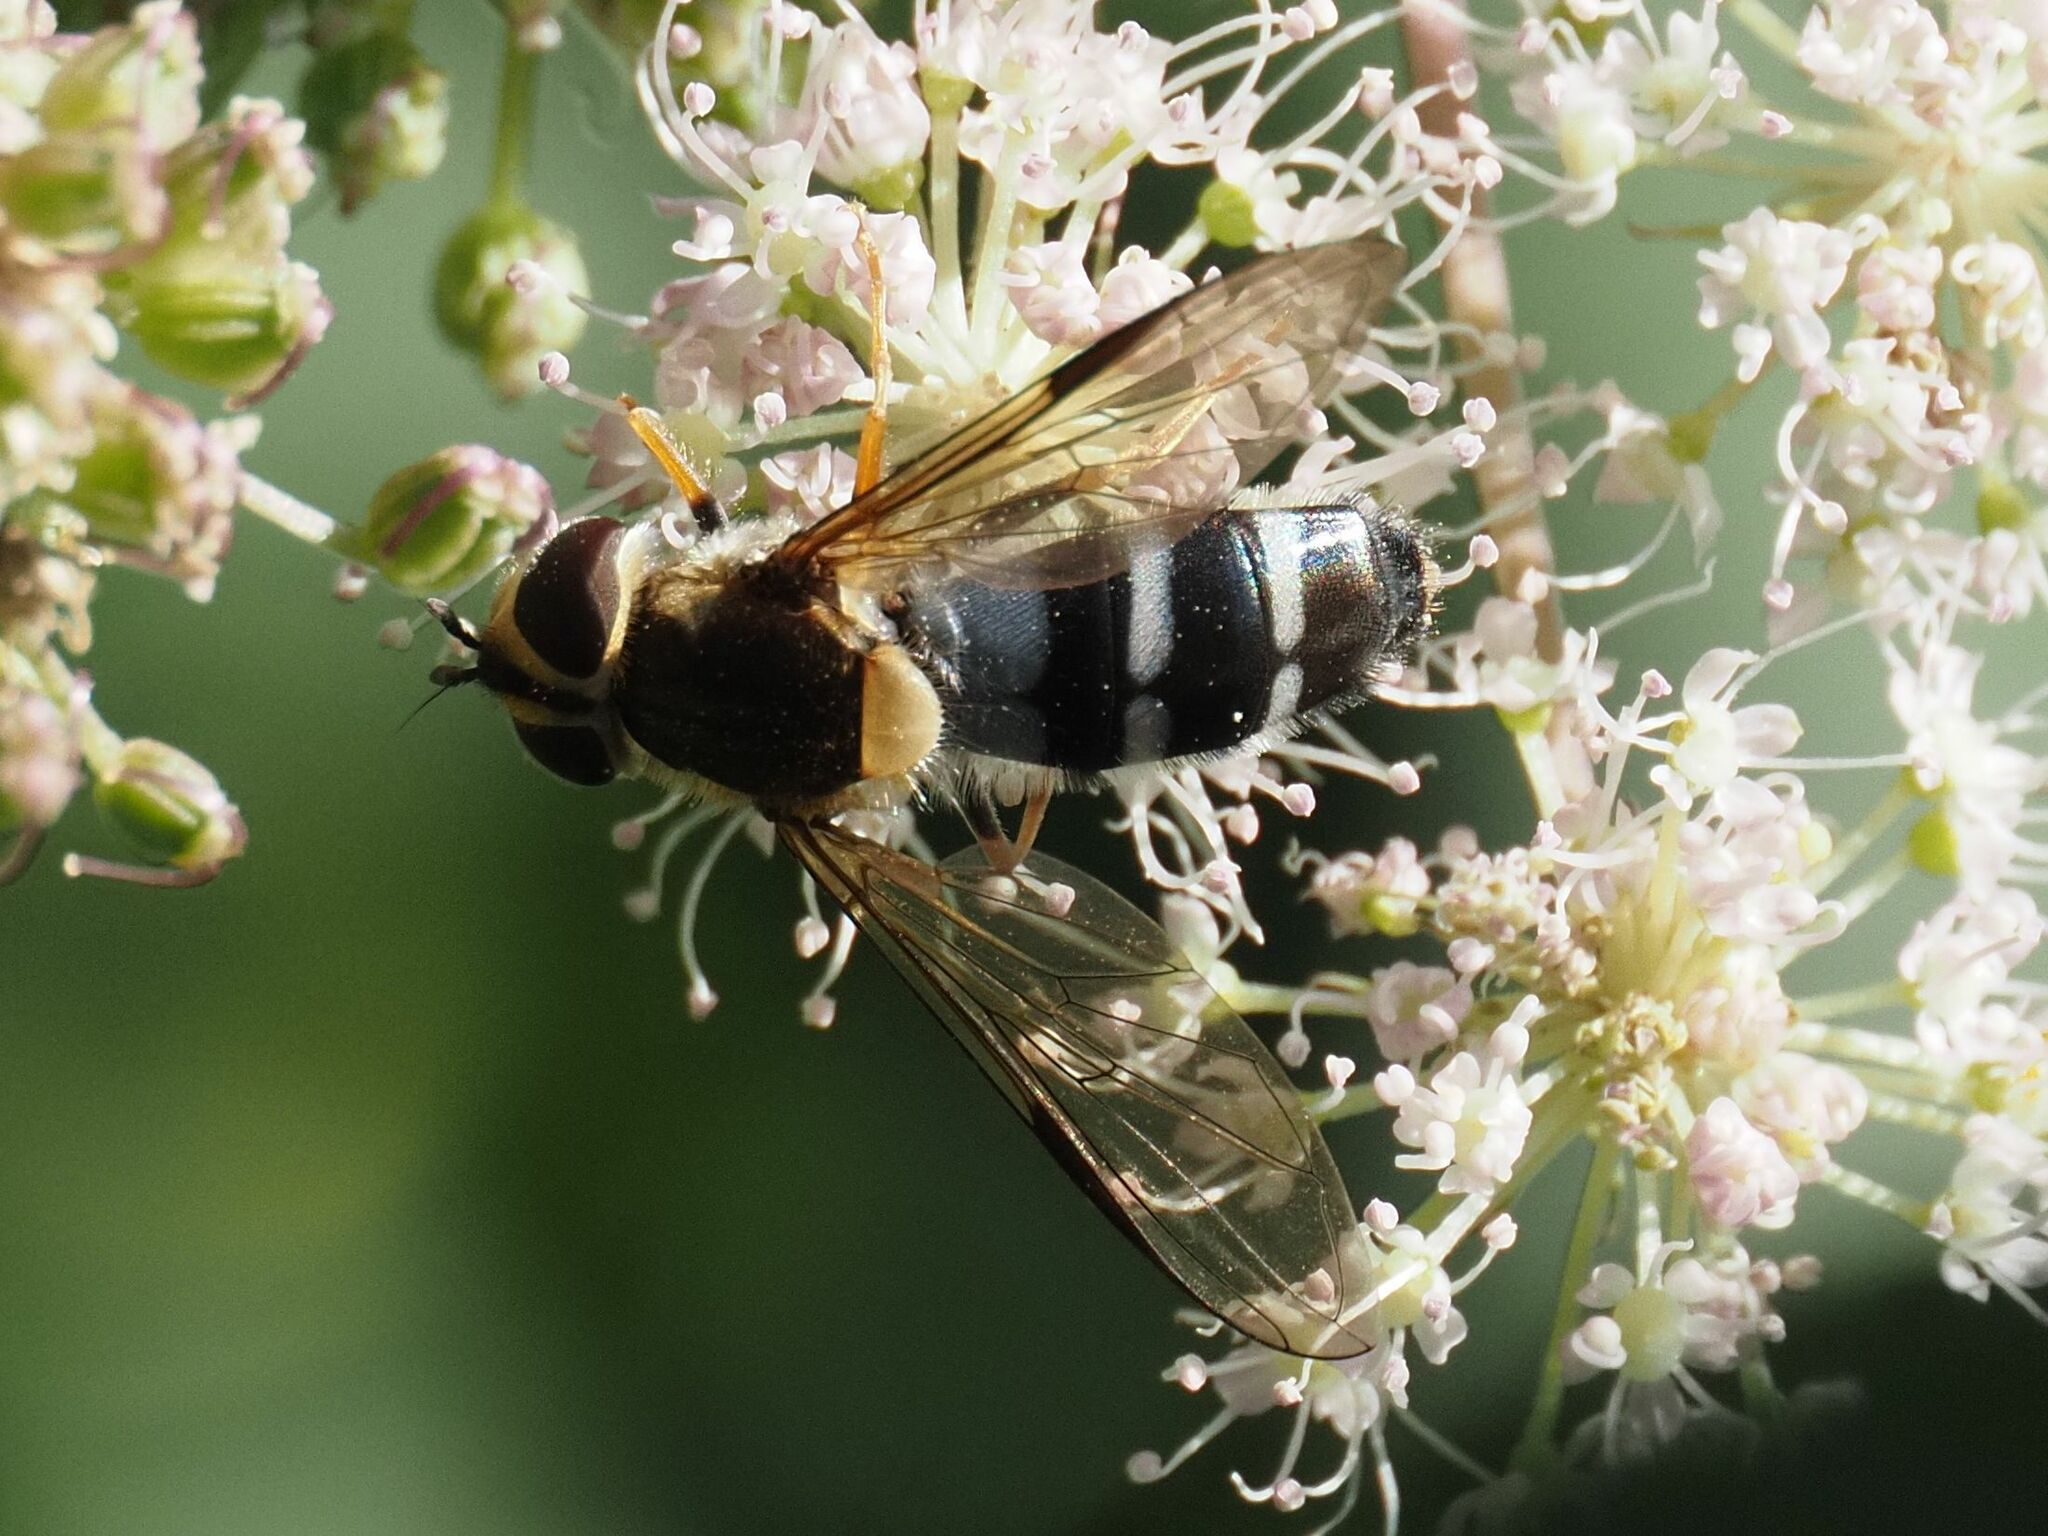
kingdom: Animalia
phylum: Arthropoda
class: Insecta
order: Diptera
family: Syrphidae
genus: Leucozona
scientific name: Leucozona glaucia
